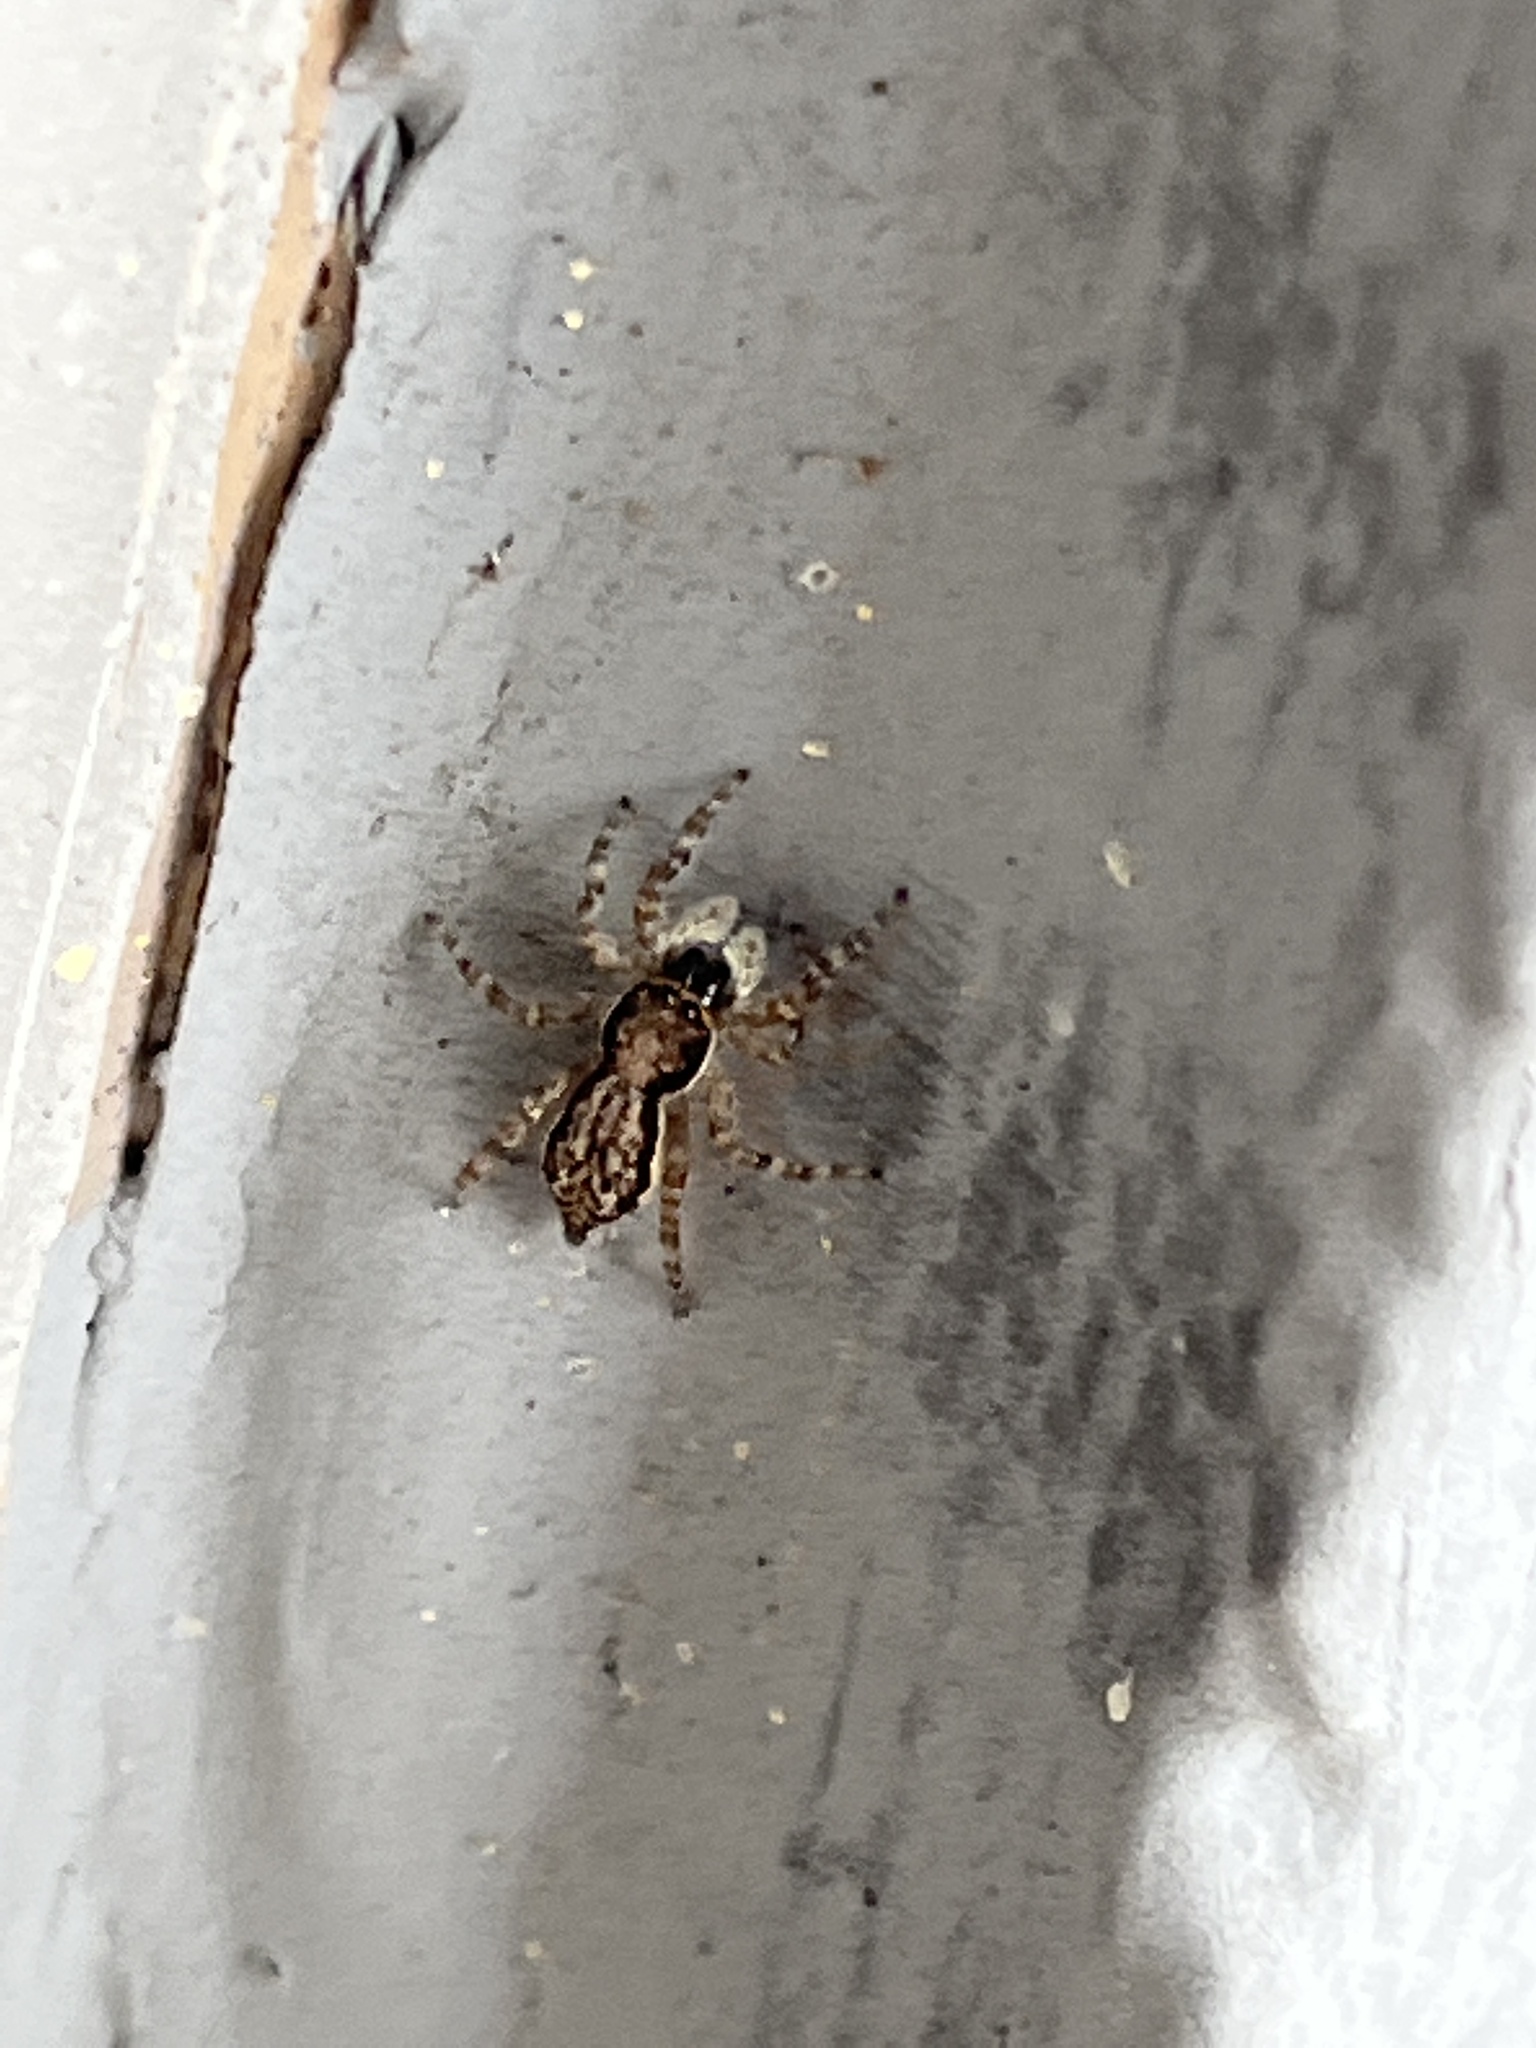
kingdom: Animalia
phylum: Arthropoda
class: Arachnida
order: Araneae
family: Salticidae
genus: Menemerus
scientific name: Menemerus bivittatus
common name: Gray wall jumper
